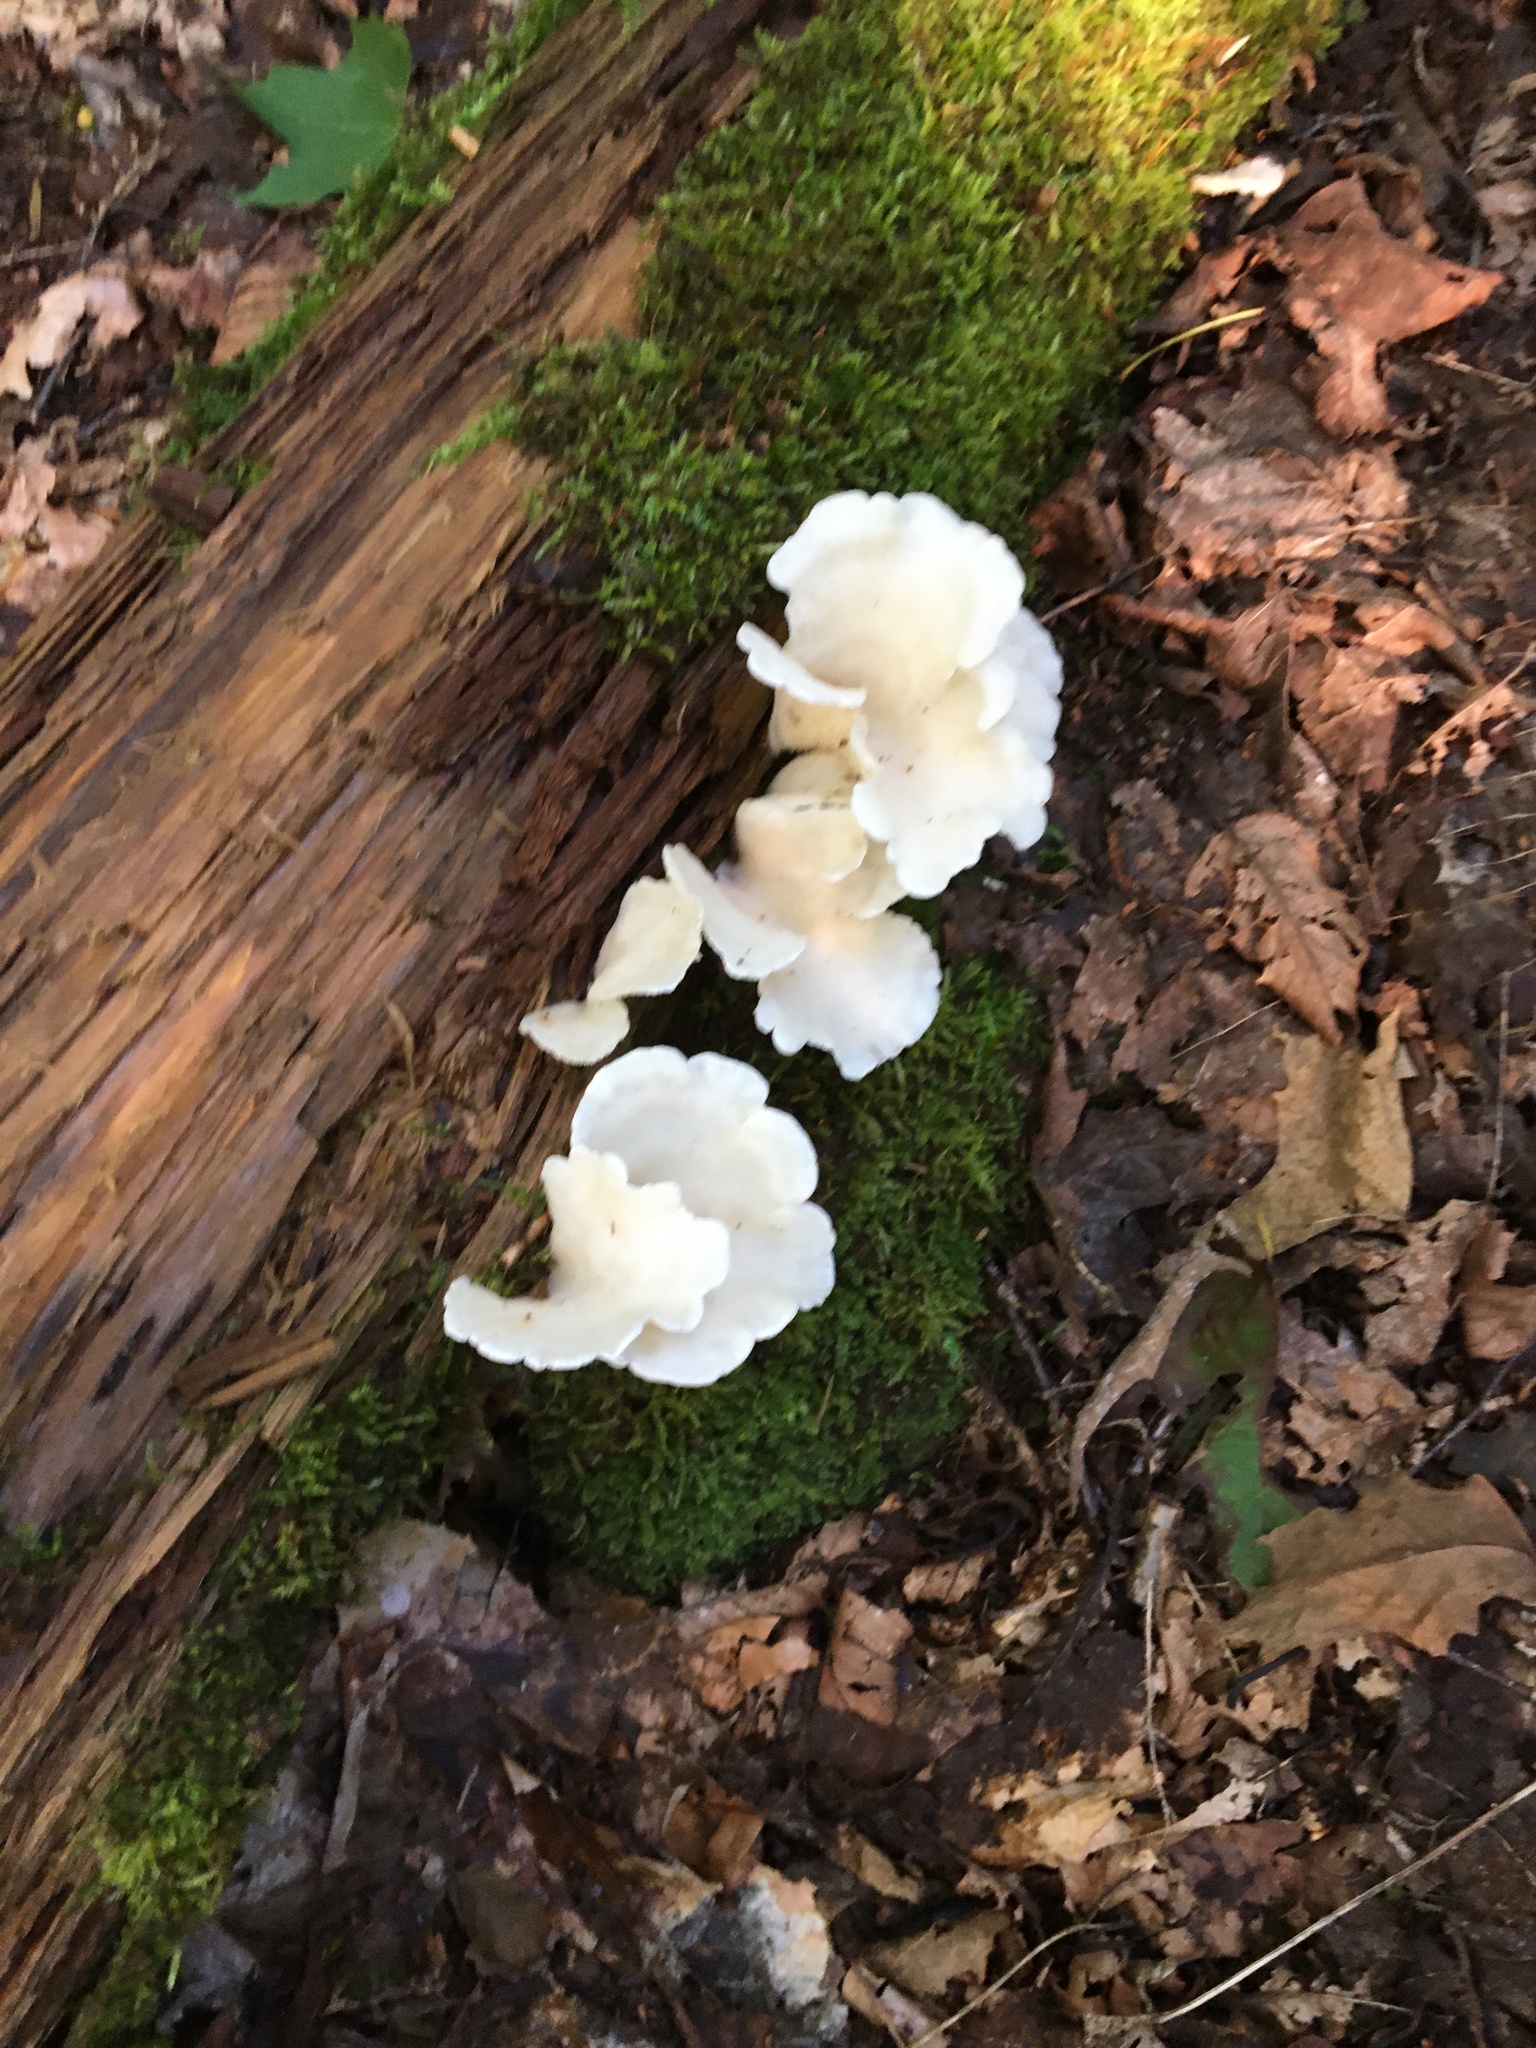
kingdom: Fungi
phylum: Basidiomycota
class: Agaricomycetes
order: Agaricales
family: Marasmiaceae
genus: Pleurocybella
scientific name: Pleurocybella porrigens
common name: Angel's wings
